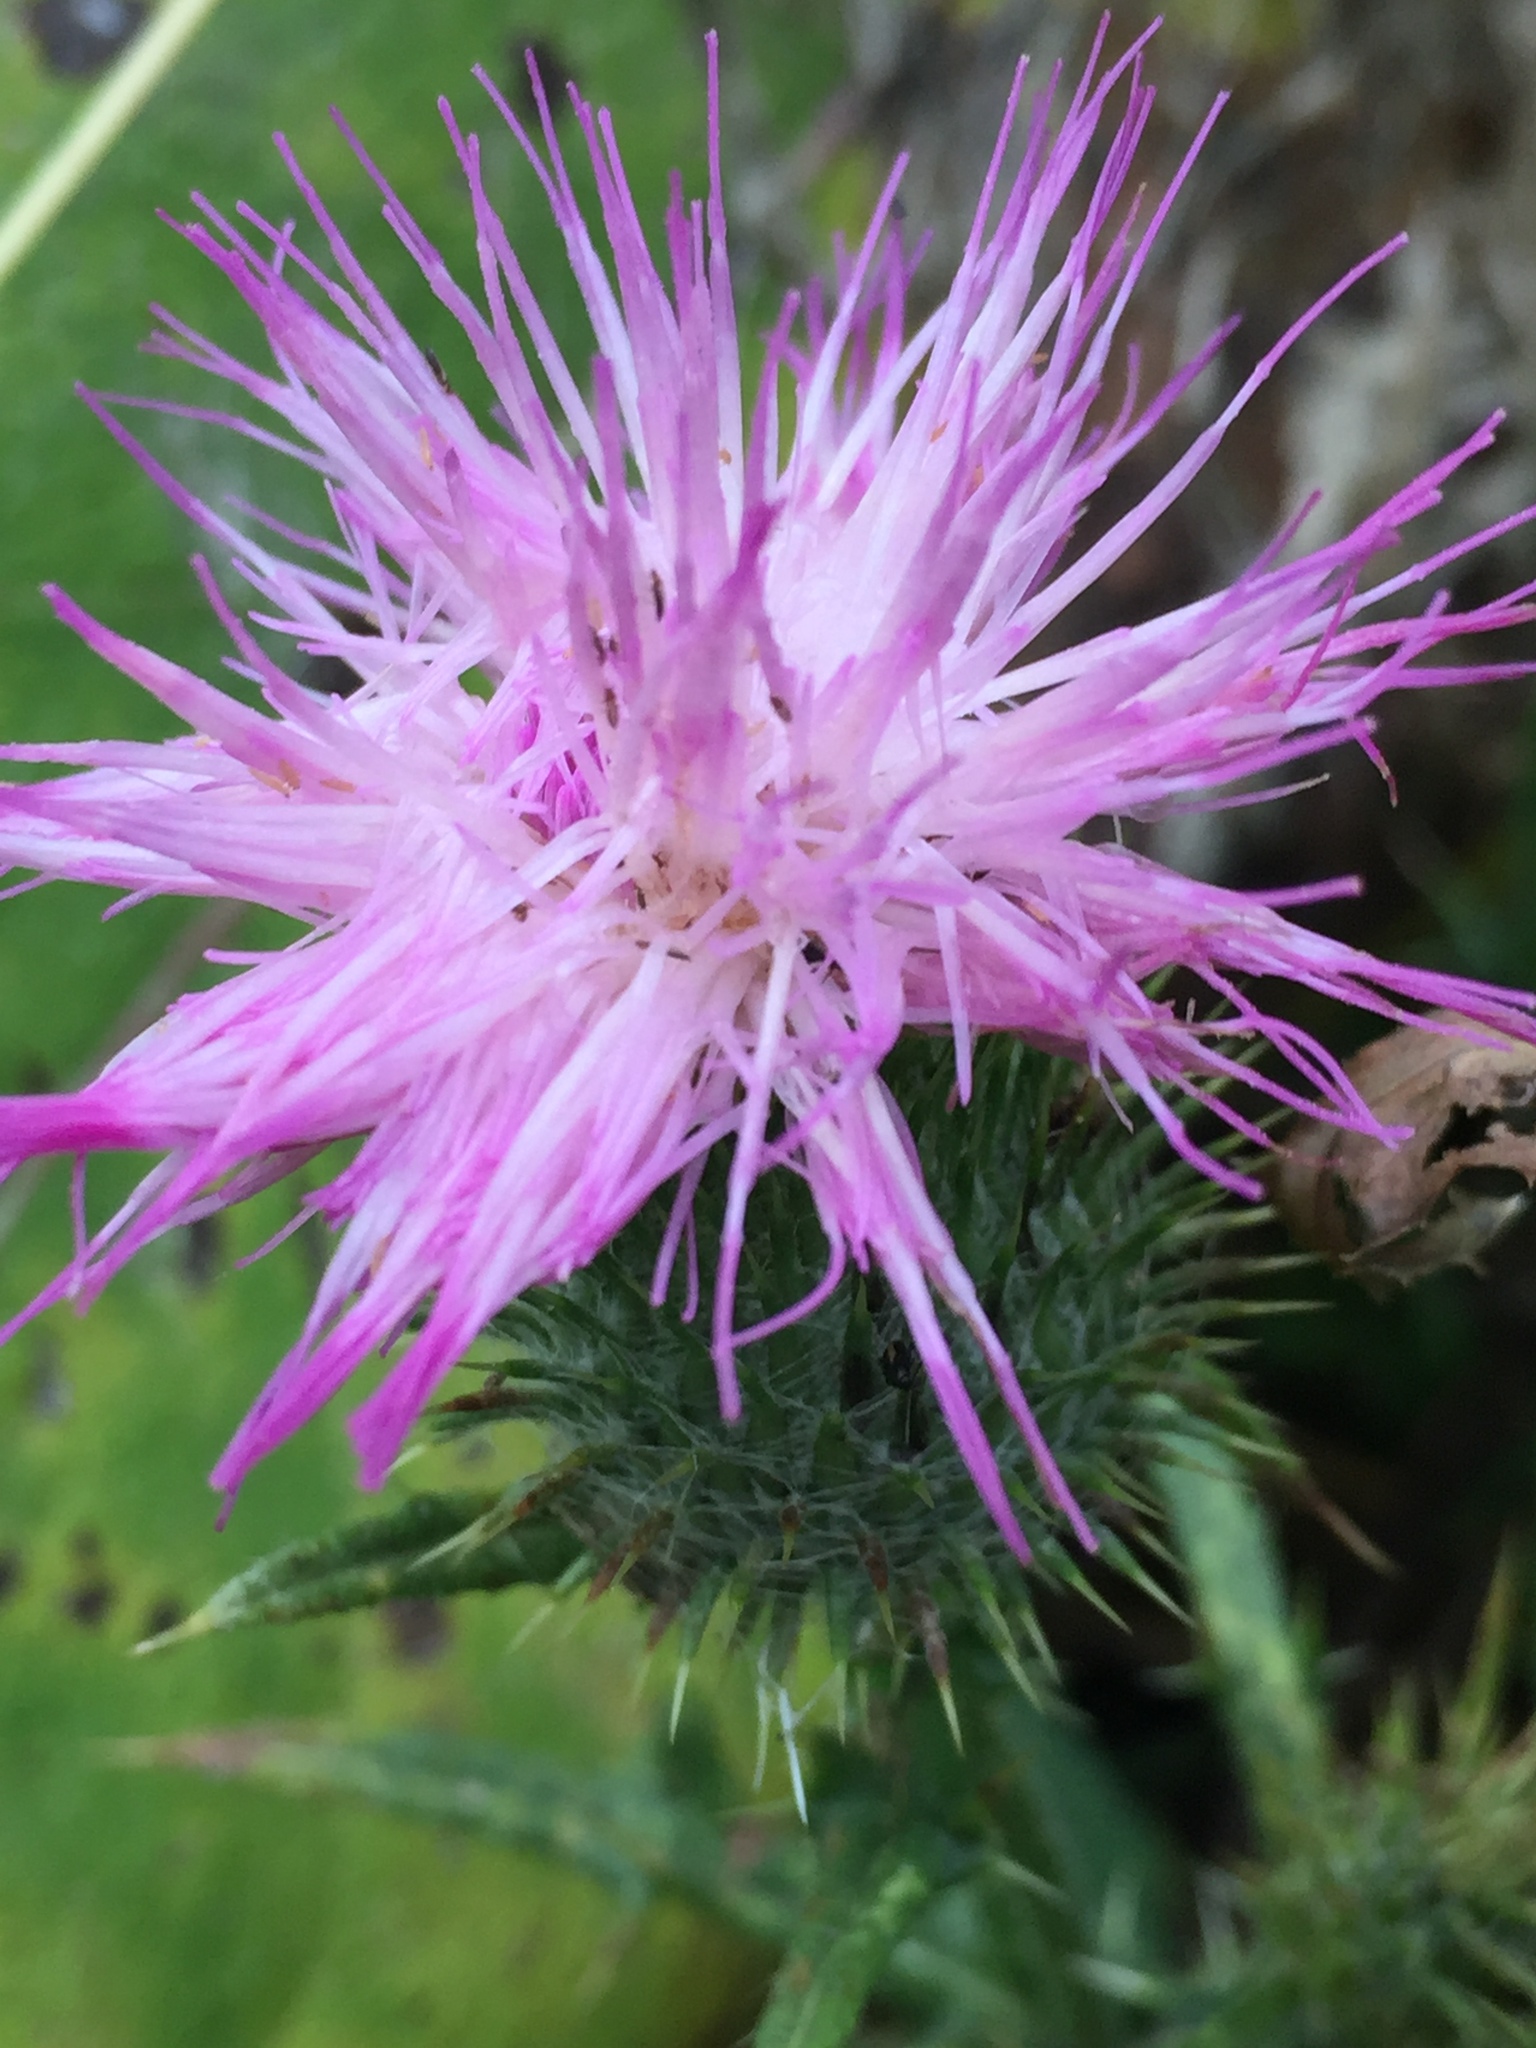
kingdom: Plantae
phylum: Tracheophyta
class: Magnoliopsida
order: Asterales
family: Asteraceae
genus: Cirsium
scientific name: Cirsium vulgare
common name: Bull thistle
